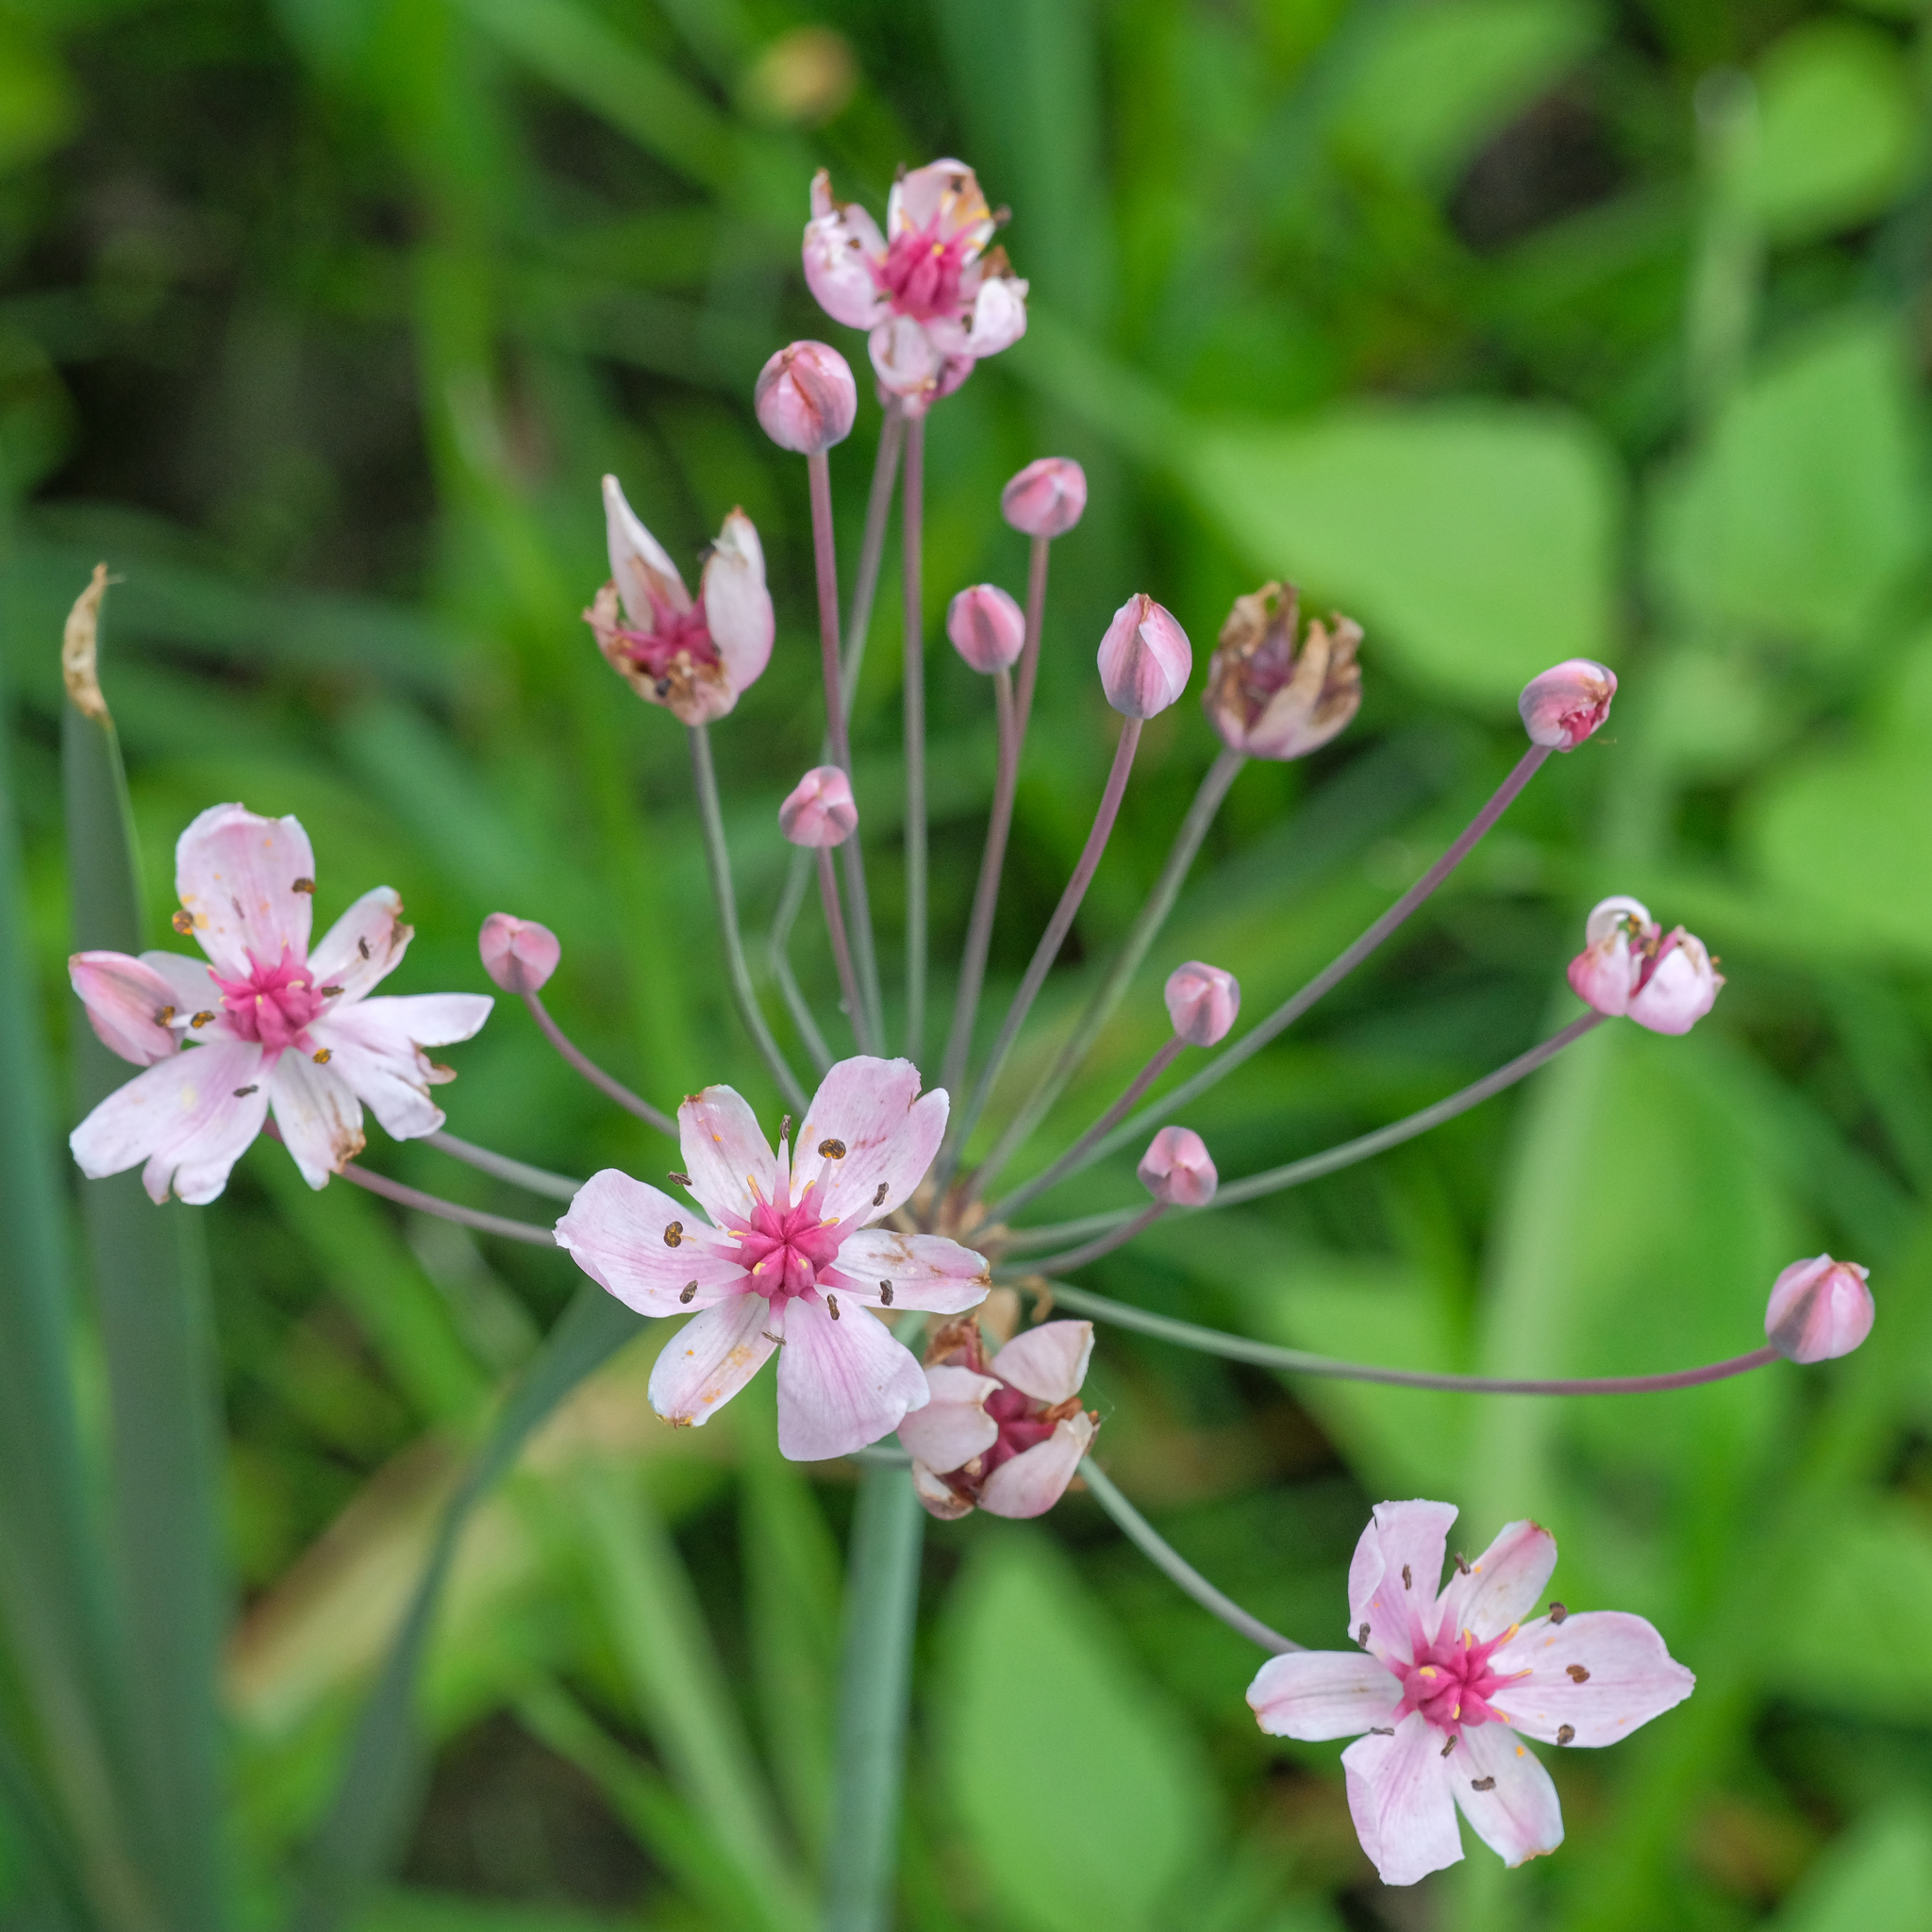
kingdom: Plantae
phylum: Tracheophyta
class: Liliopsida
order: Alismatales
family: Butomaceae
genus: Butomus
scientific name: Butomus umbellatus
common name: Flowering-rush
